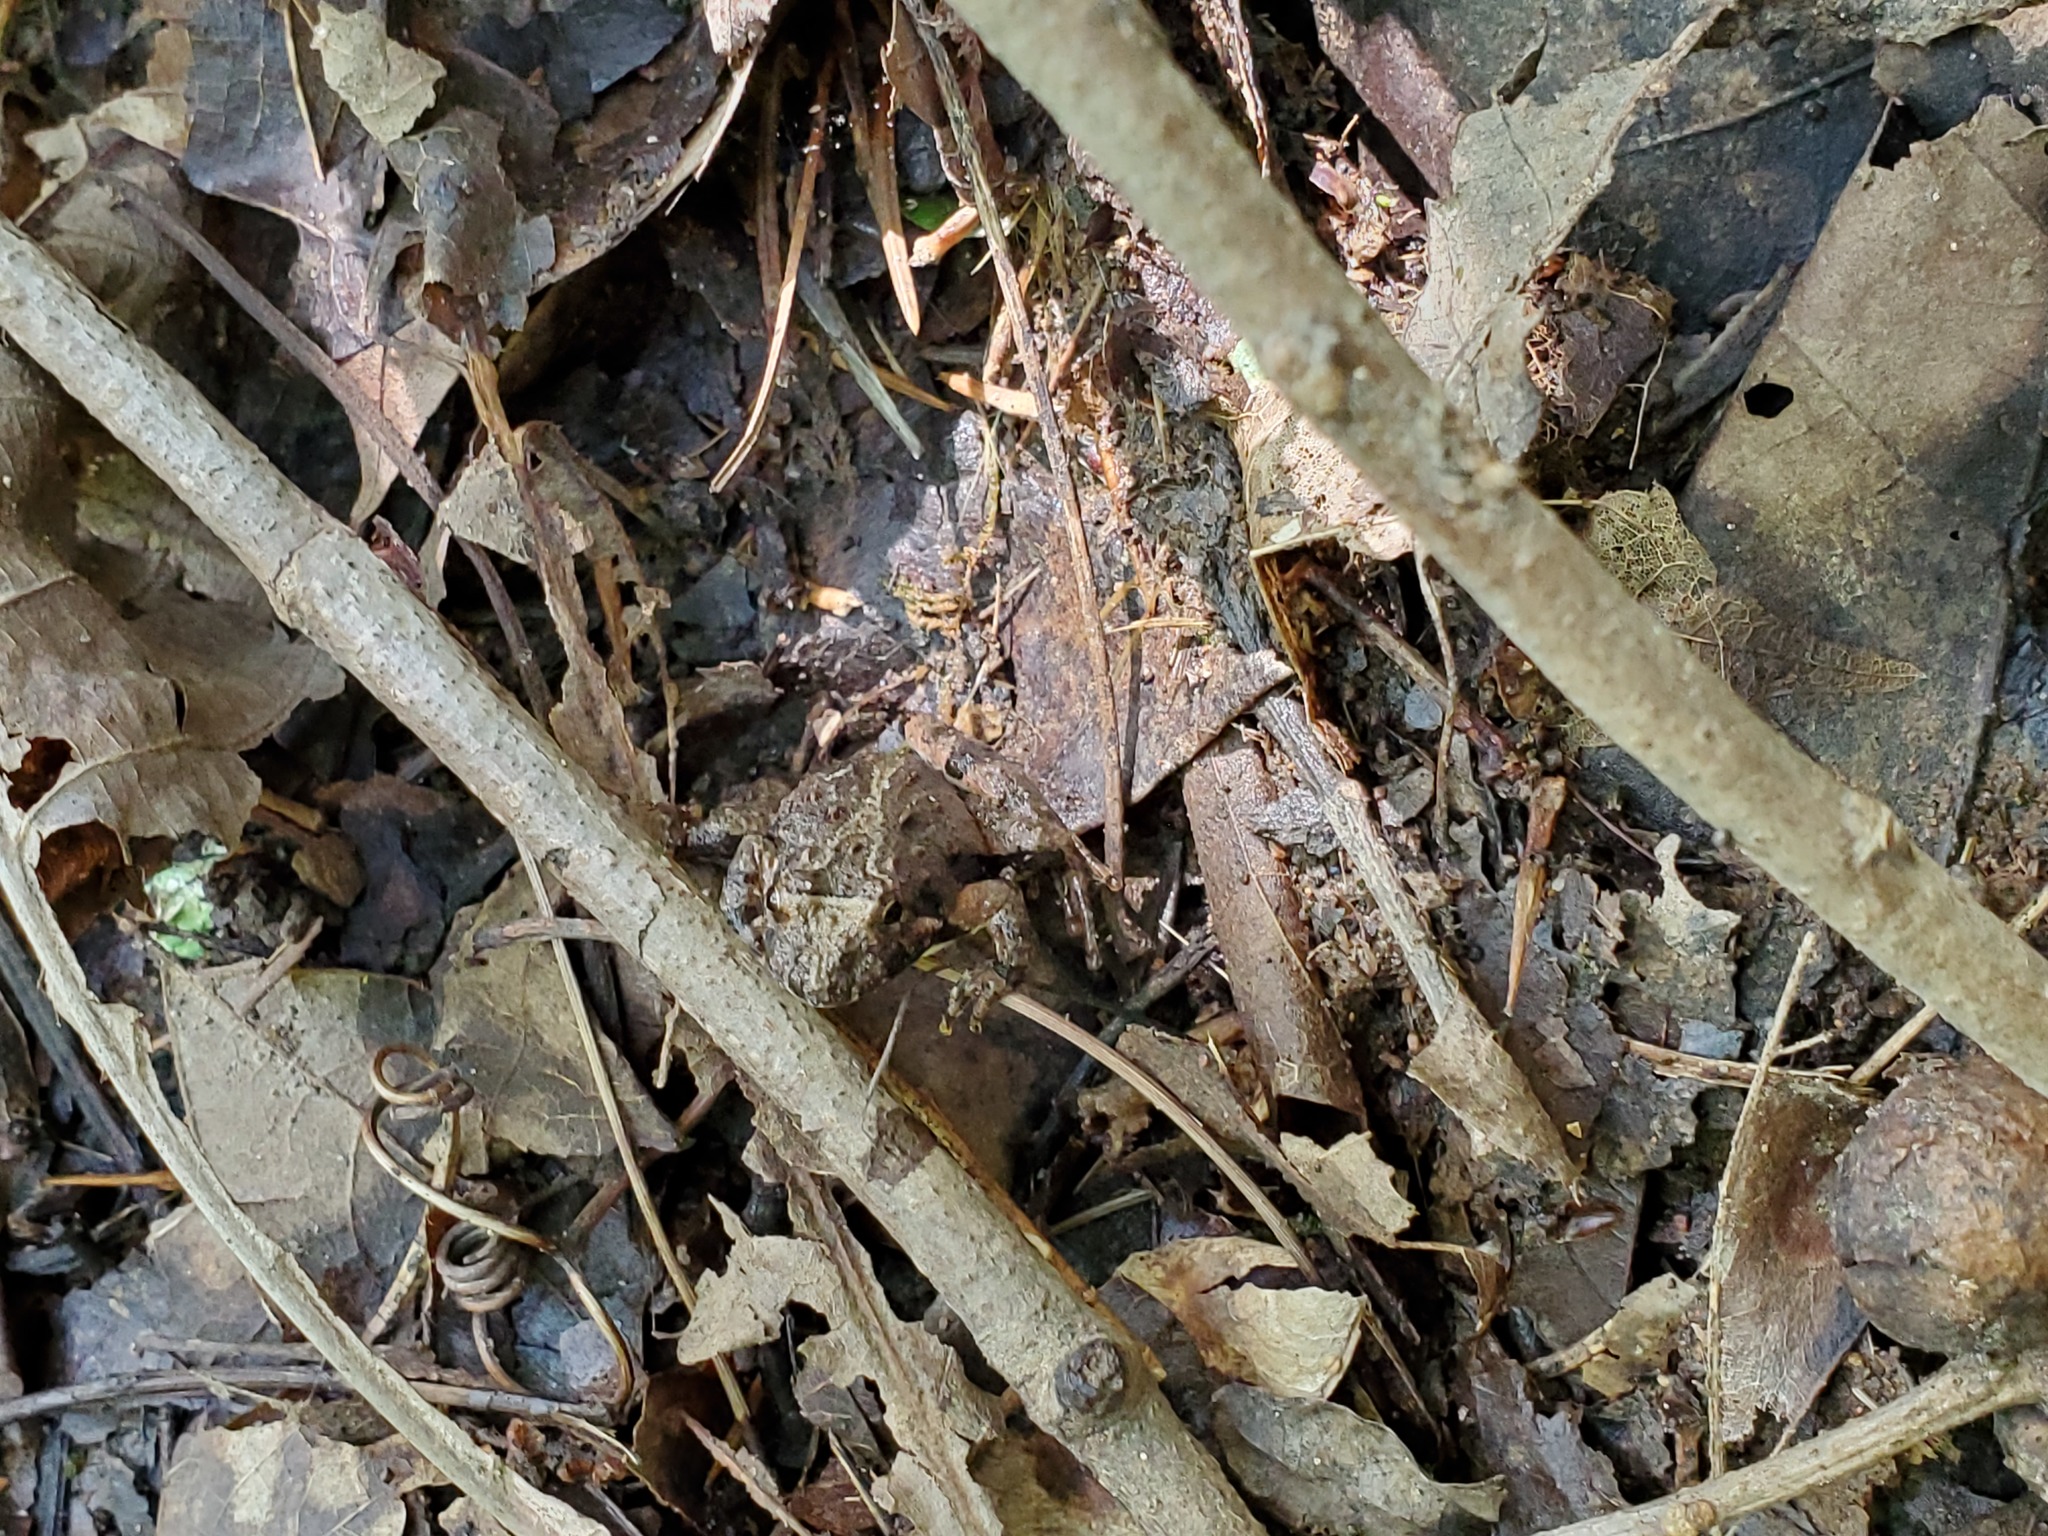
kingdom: Animalia
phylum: Chordata
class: Amphibia
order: Anura
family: Hylidae
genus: Acris
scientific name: Acris crepitans
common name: Northern cricket frog
